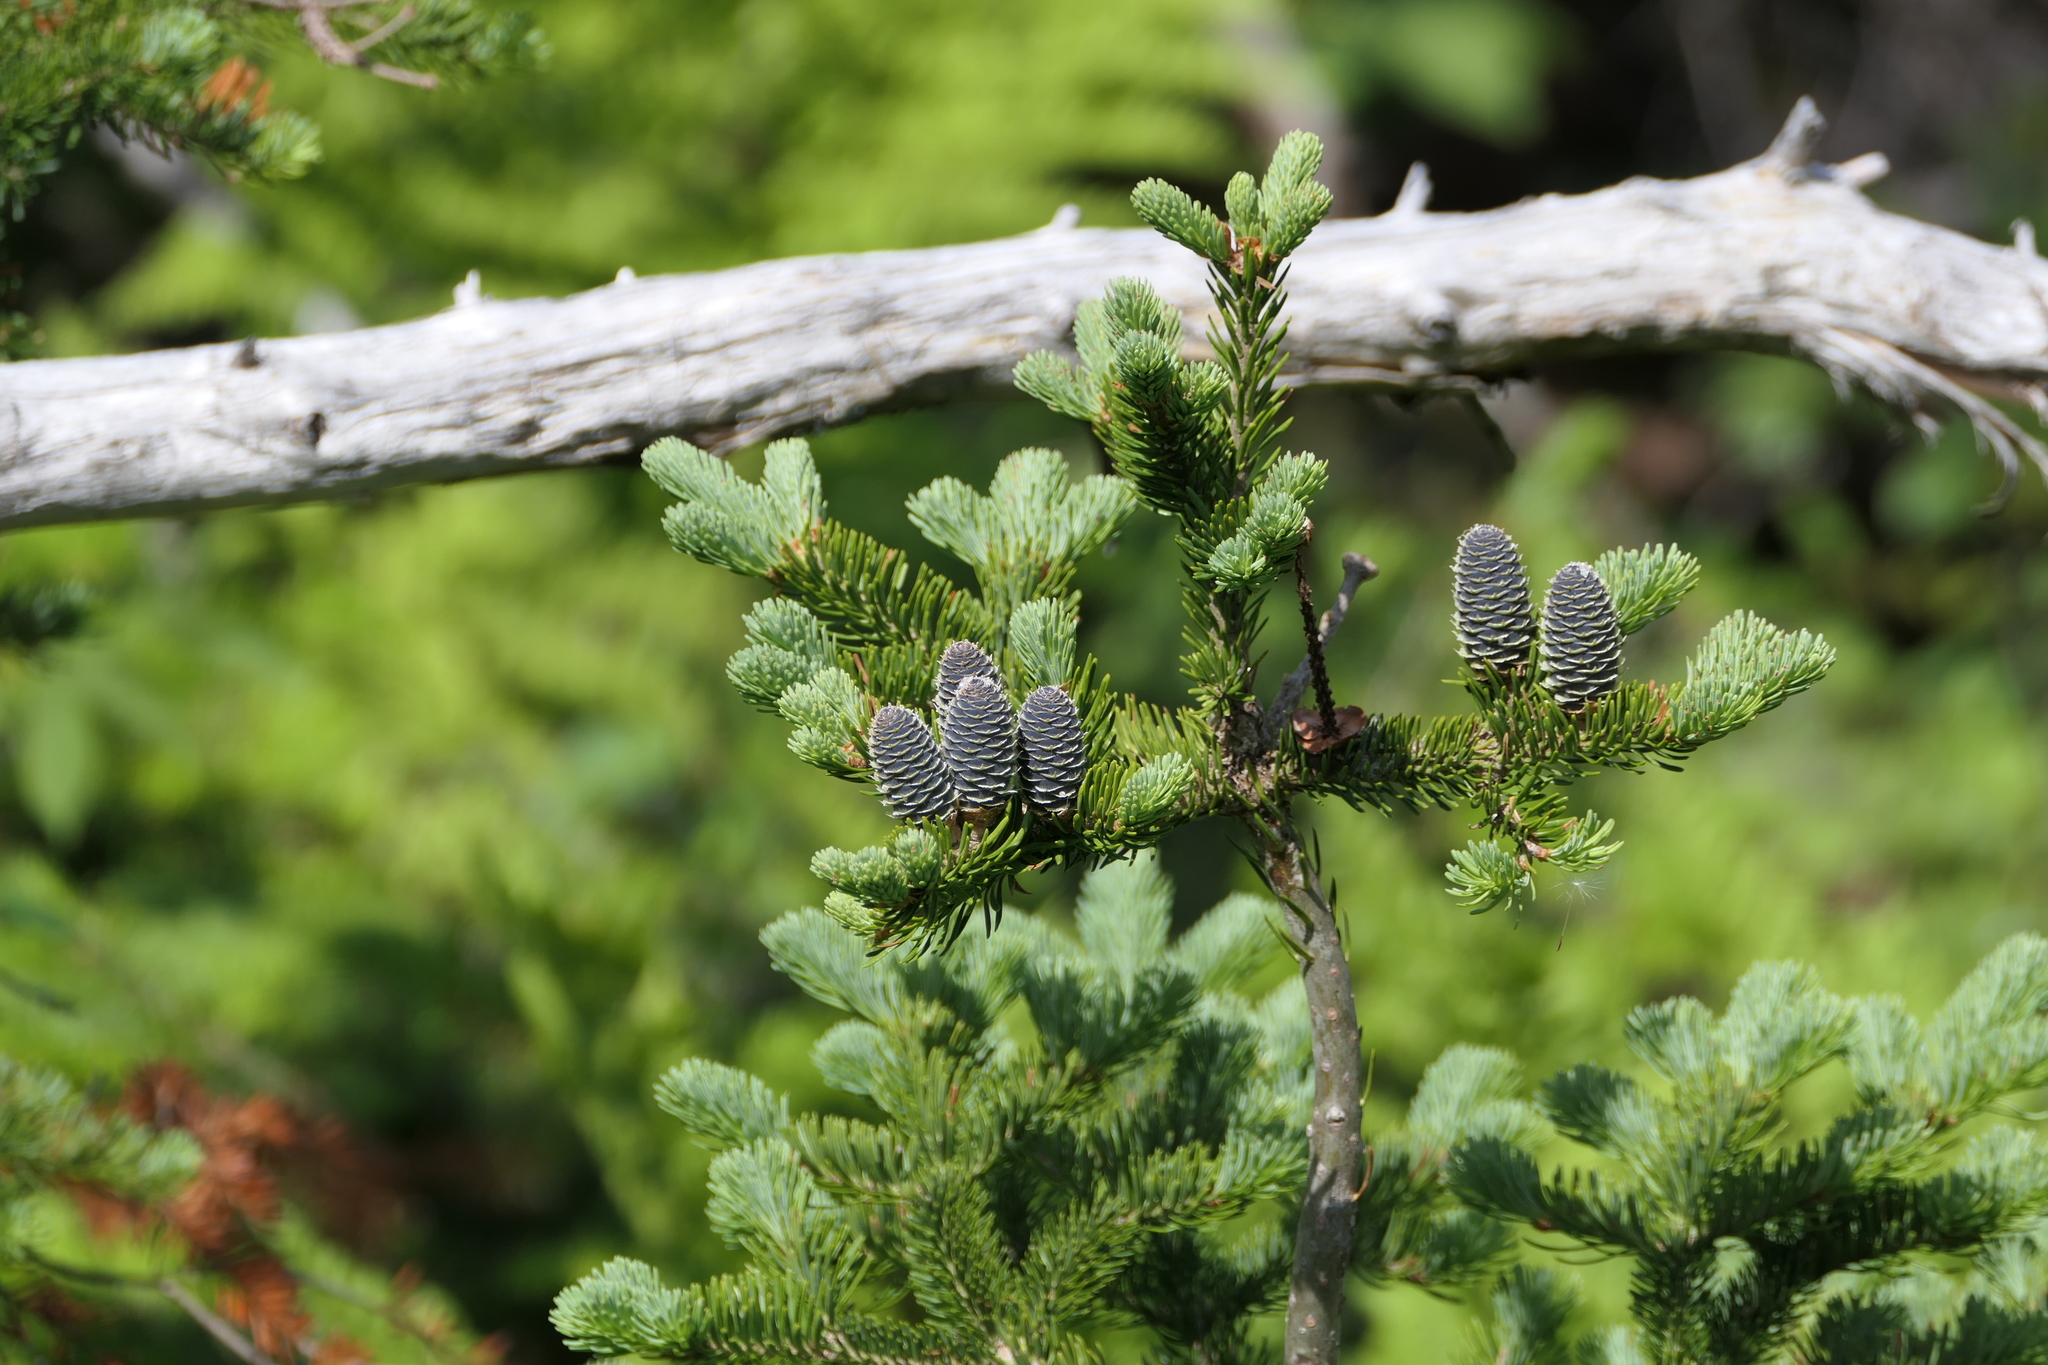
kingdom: Plantae
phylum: Tracheophyta
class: Pinopsida
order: Pinales
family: Pinaceae
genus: Abies
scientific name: Abies balsamea
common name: Balsam fir
